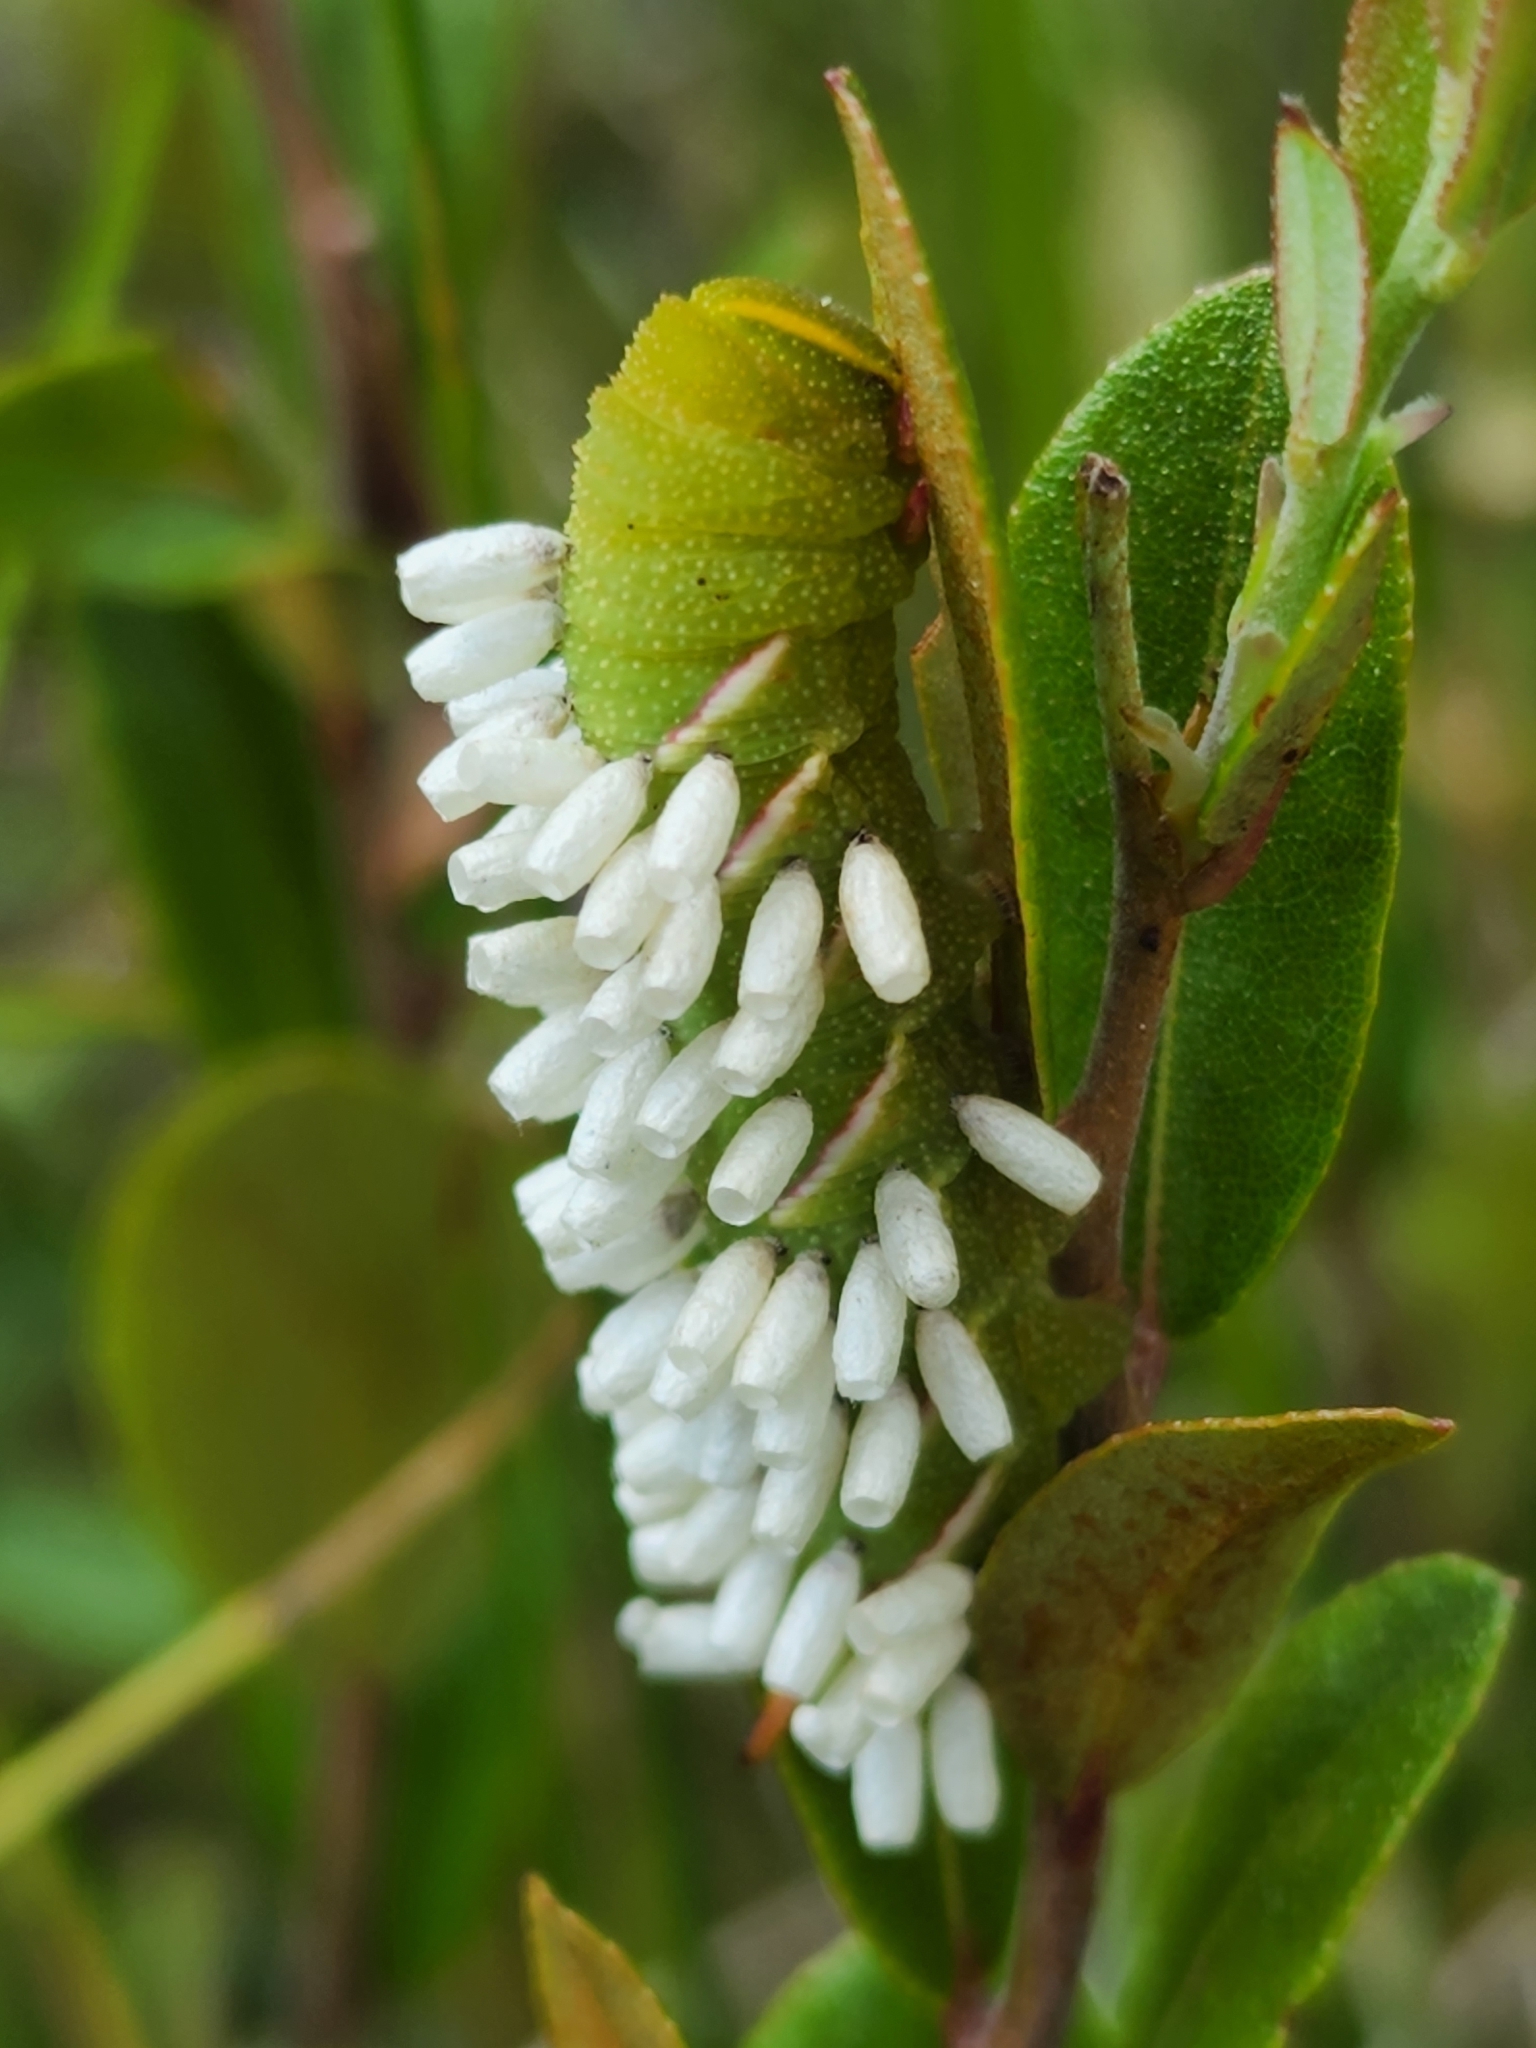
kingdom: Animalia
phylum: Arthropoda
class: Insecta
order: Hymenoptera
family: Braconidae
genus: Cotesia
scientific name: Cotesia congregata
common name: Hornworm parasitoid wasp
